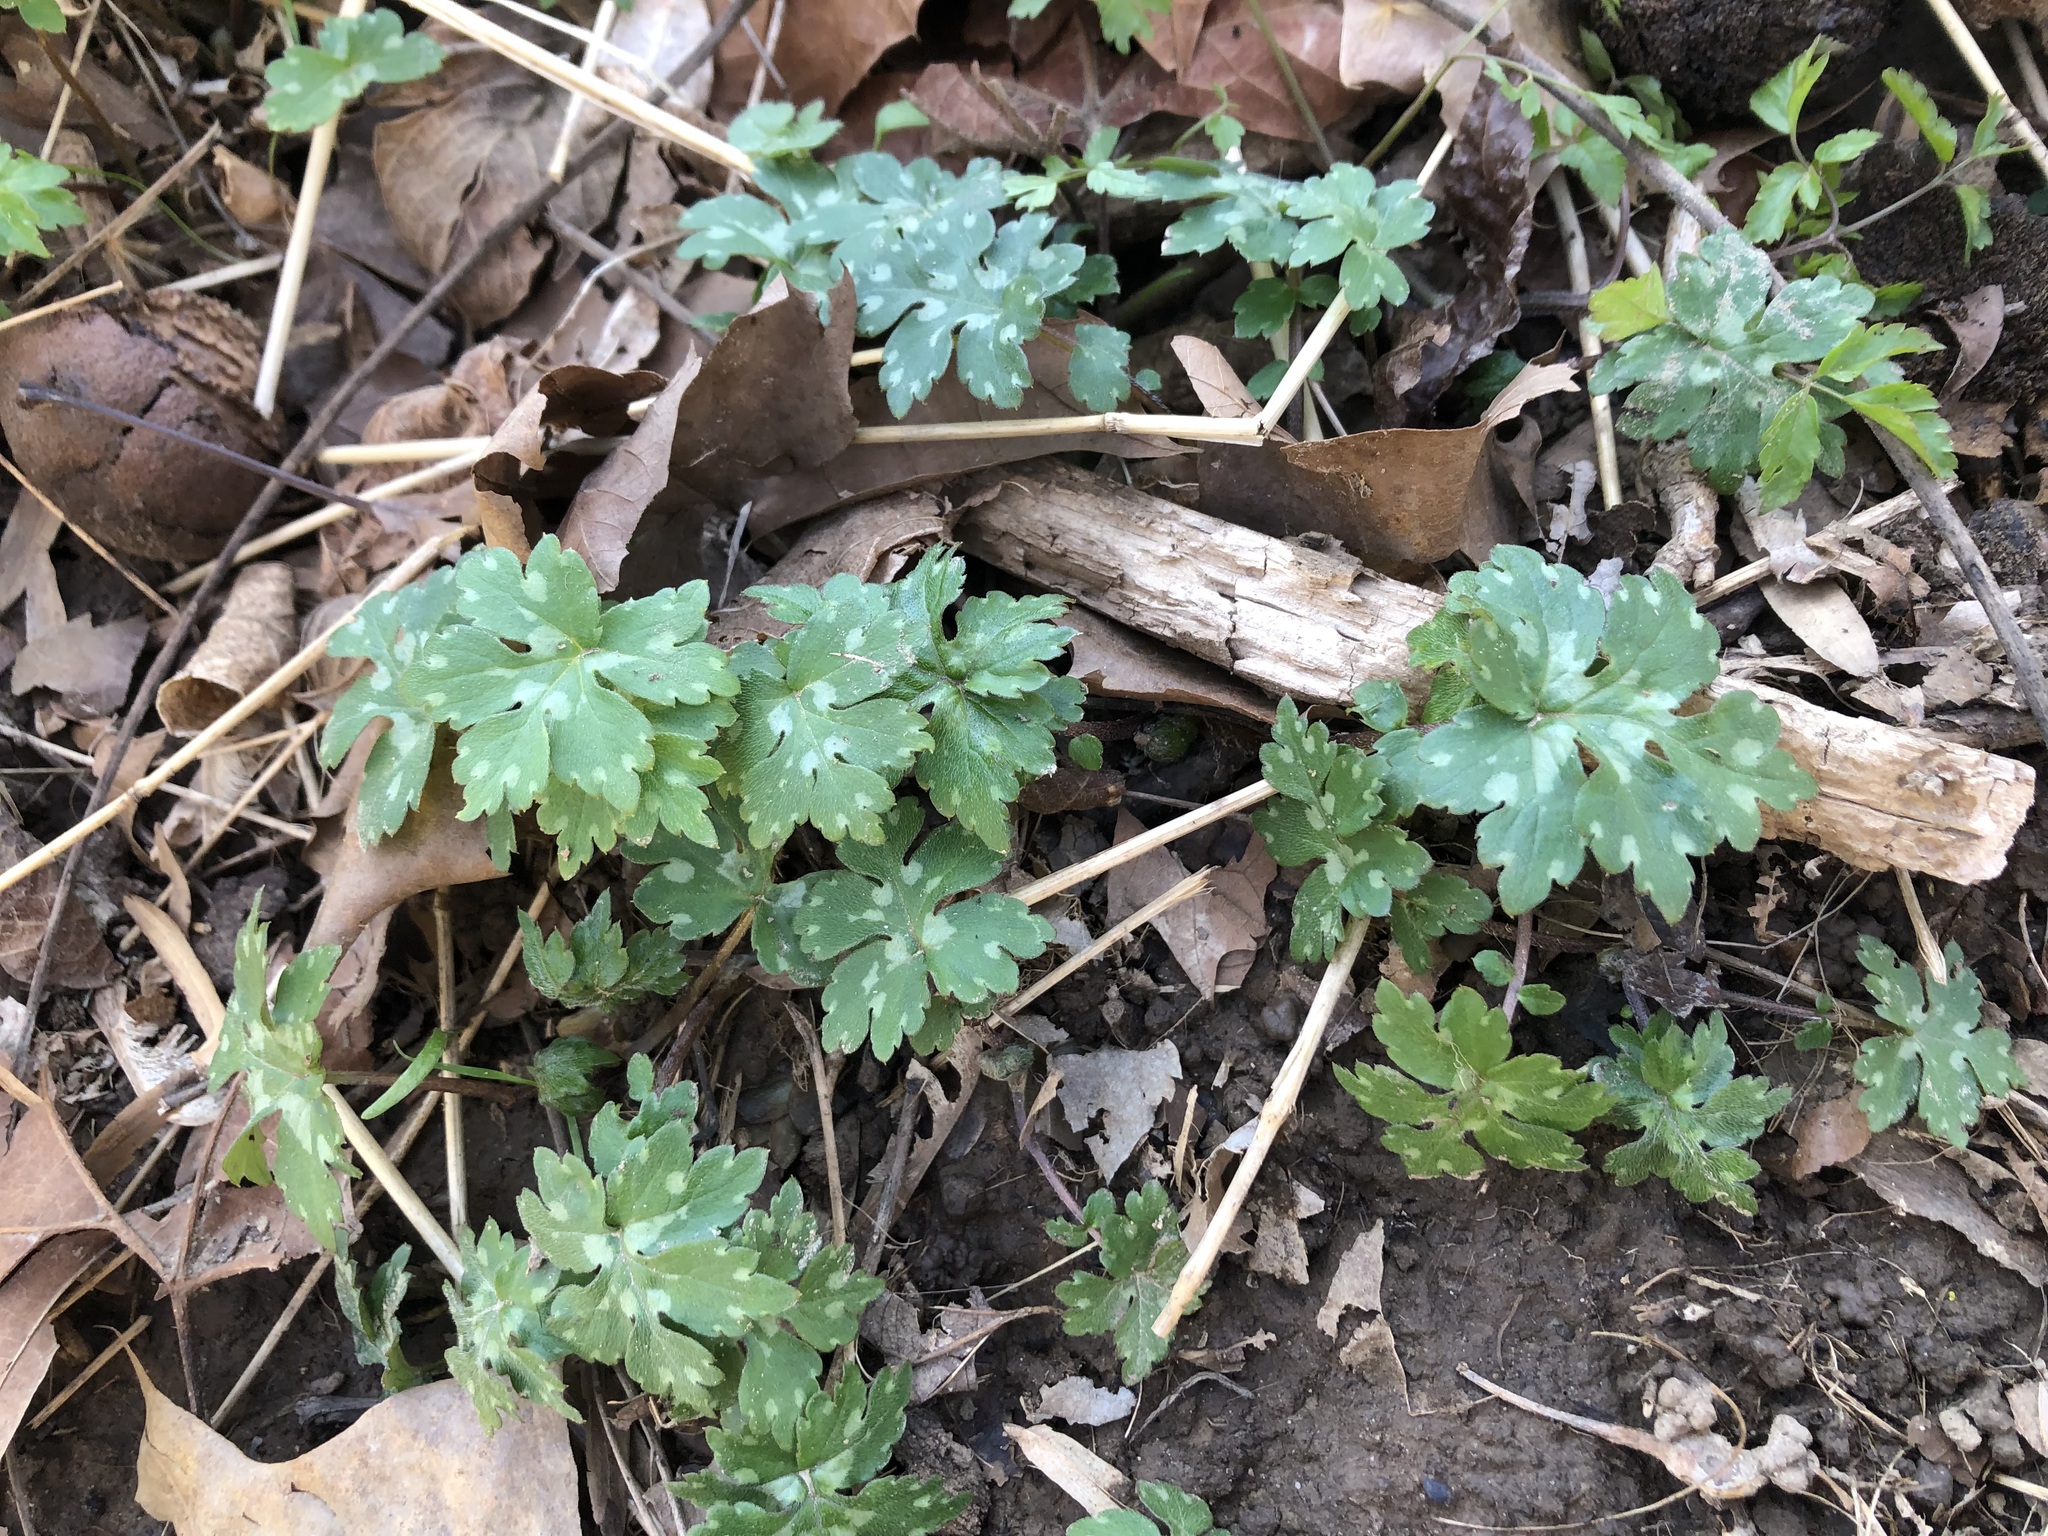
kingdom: Plantae
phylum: Tracheophyta
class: Magnoliopsida
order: Boraginales
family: Hydrophyllaceae
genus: Hydrophyllum
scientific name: Hydrophyllum canadense
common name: Canada waterleaf
